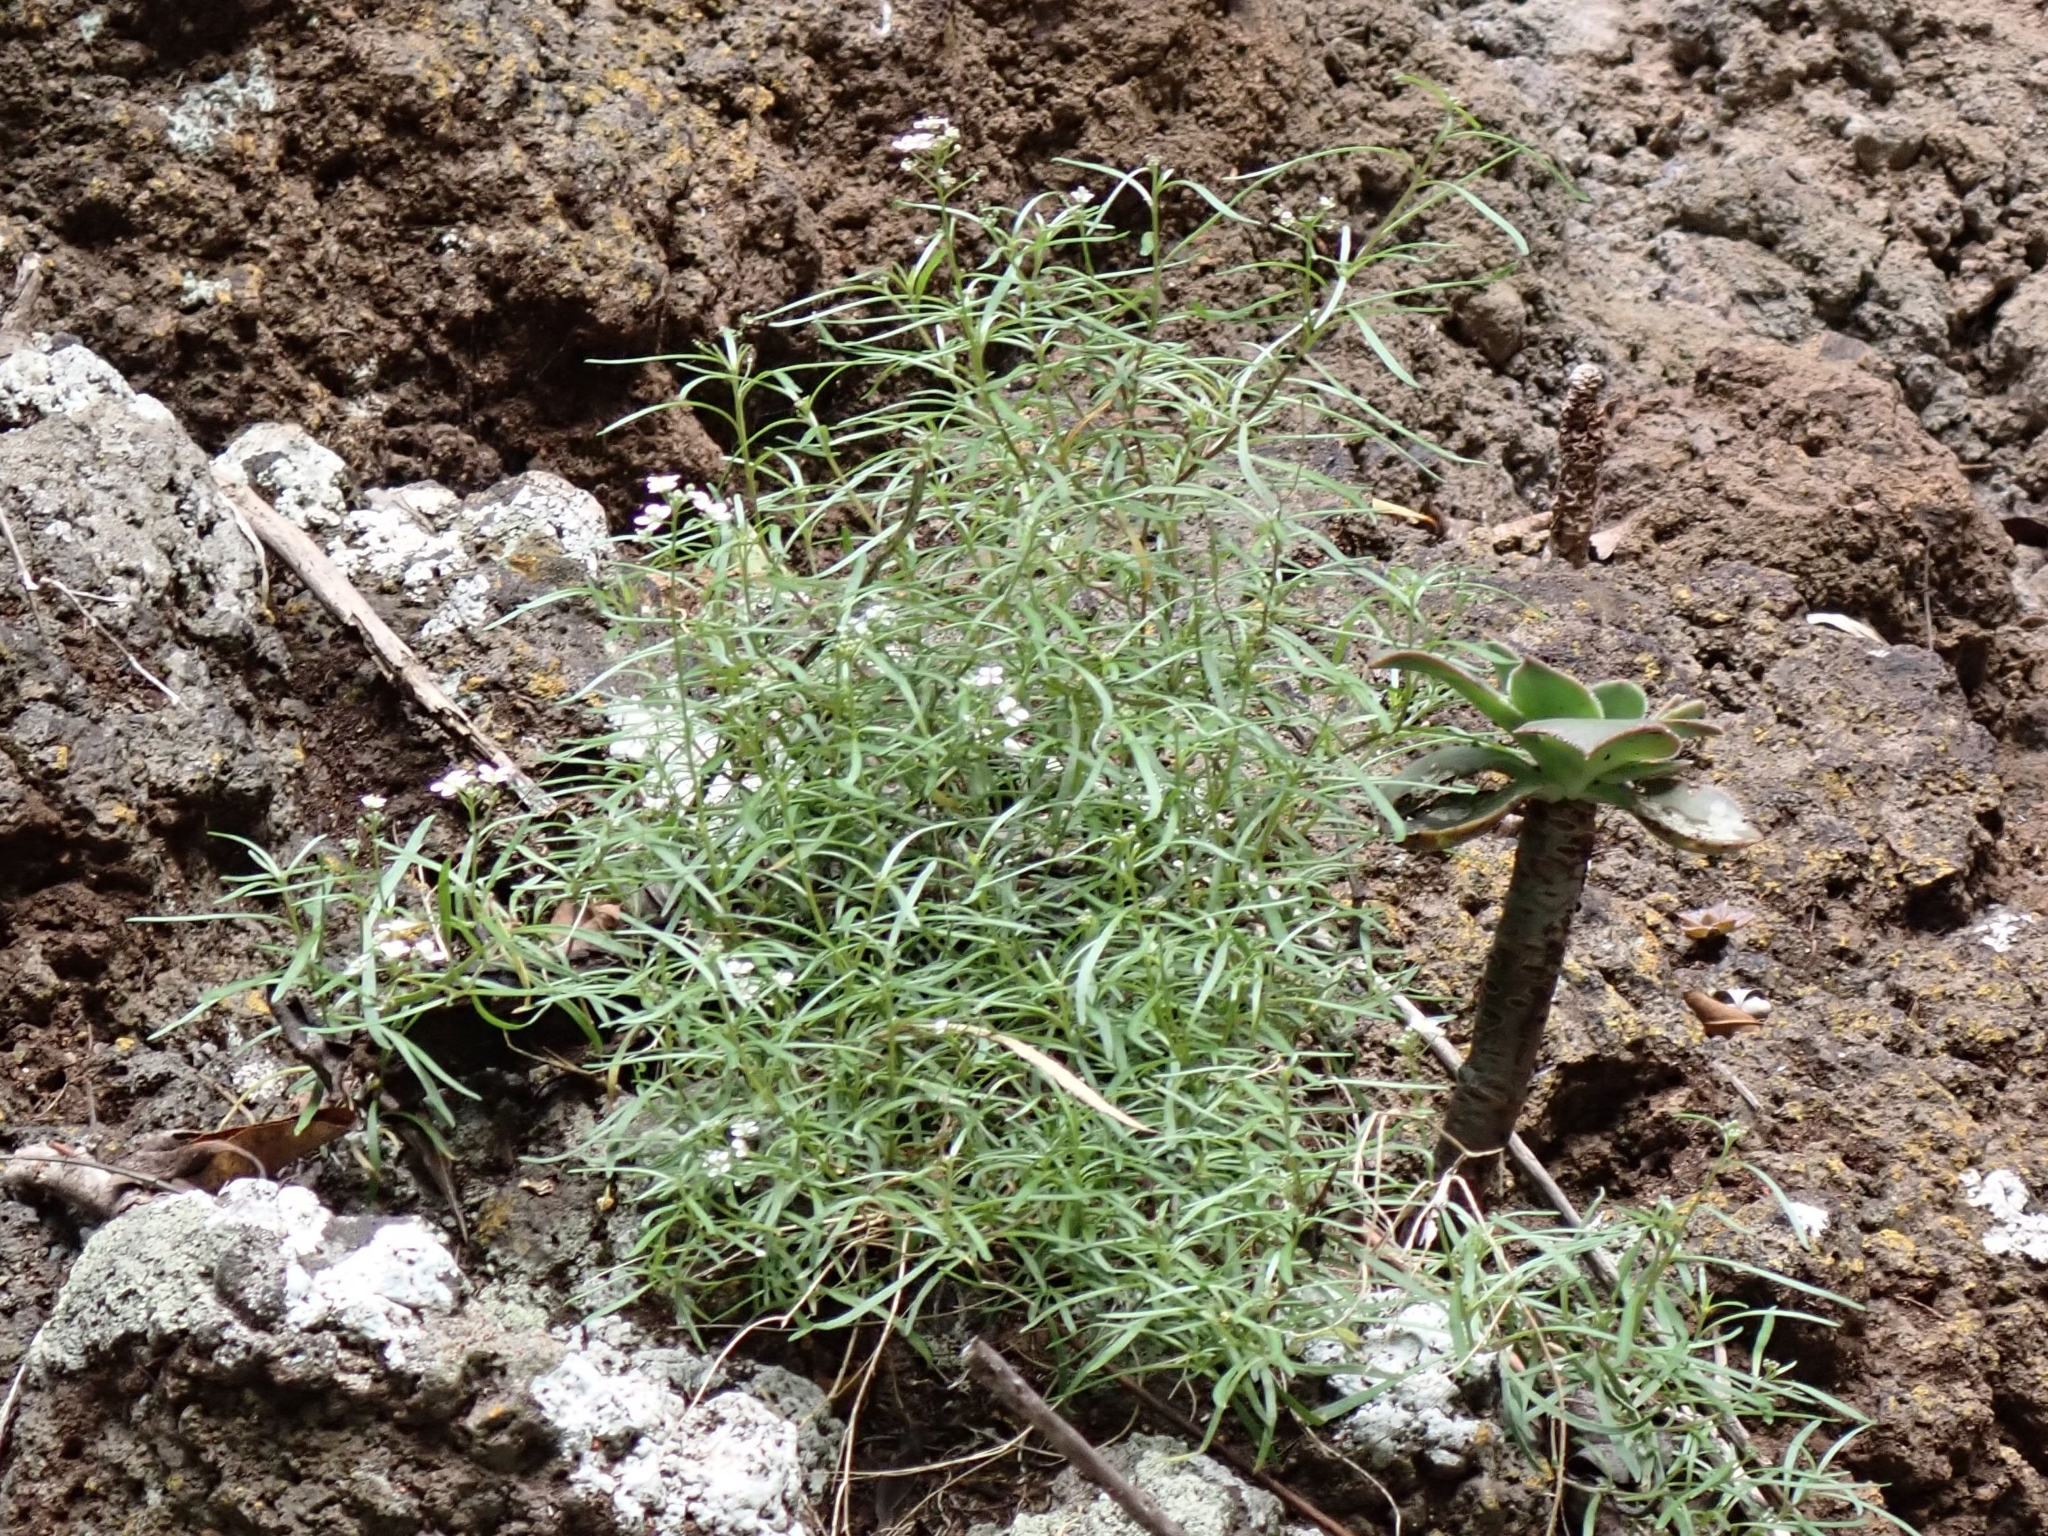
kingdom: Plantae
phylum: Tracheophyta
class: Magnoliopsida
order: Brassicales
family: Brassicaceae
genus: Lobularia
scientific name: Lobularia canariensis
